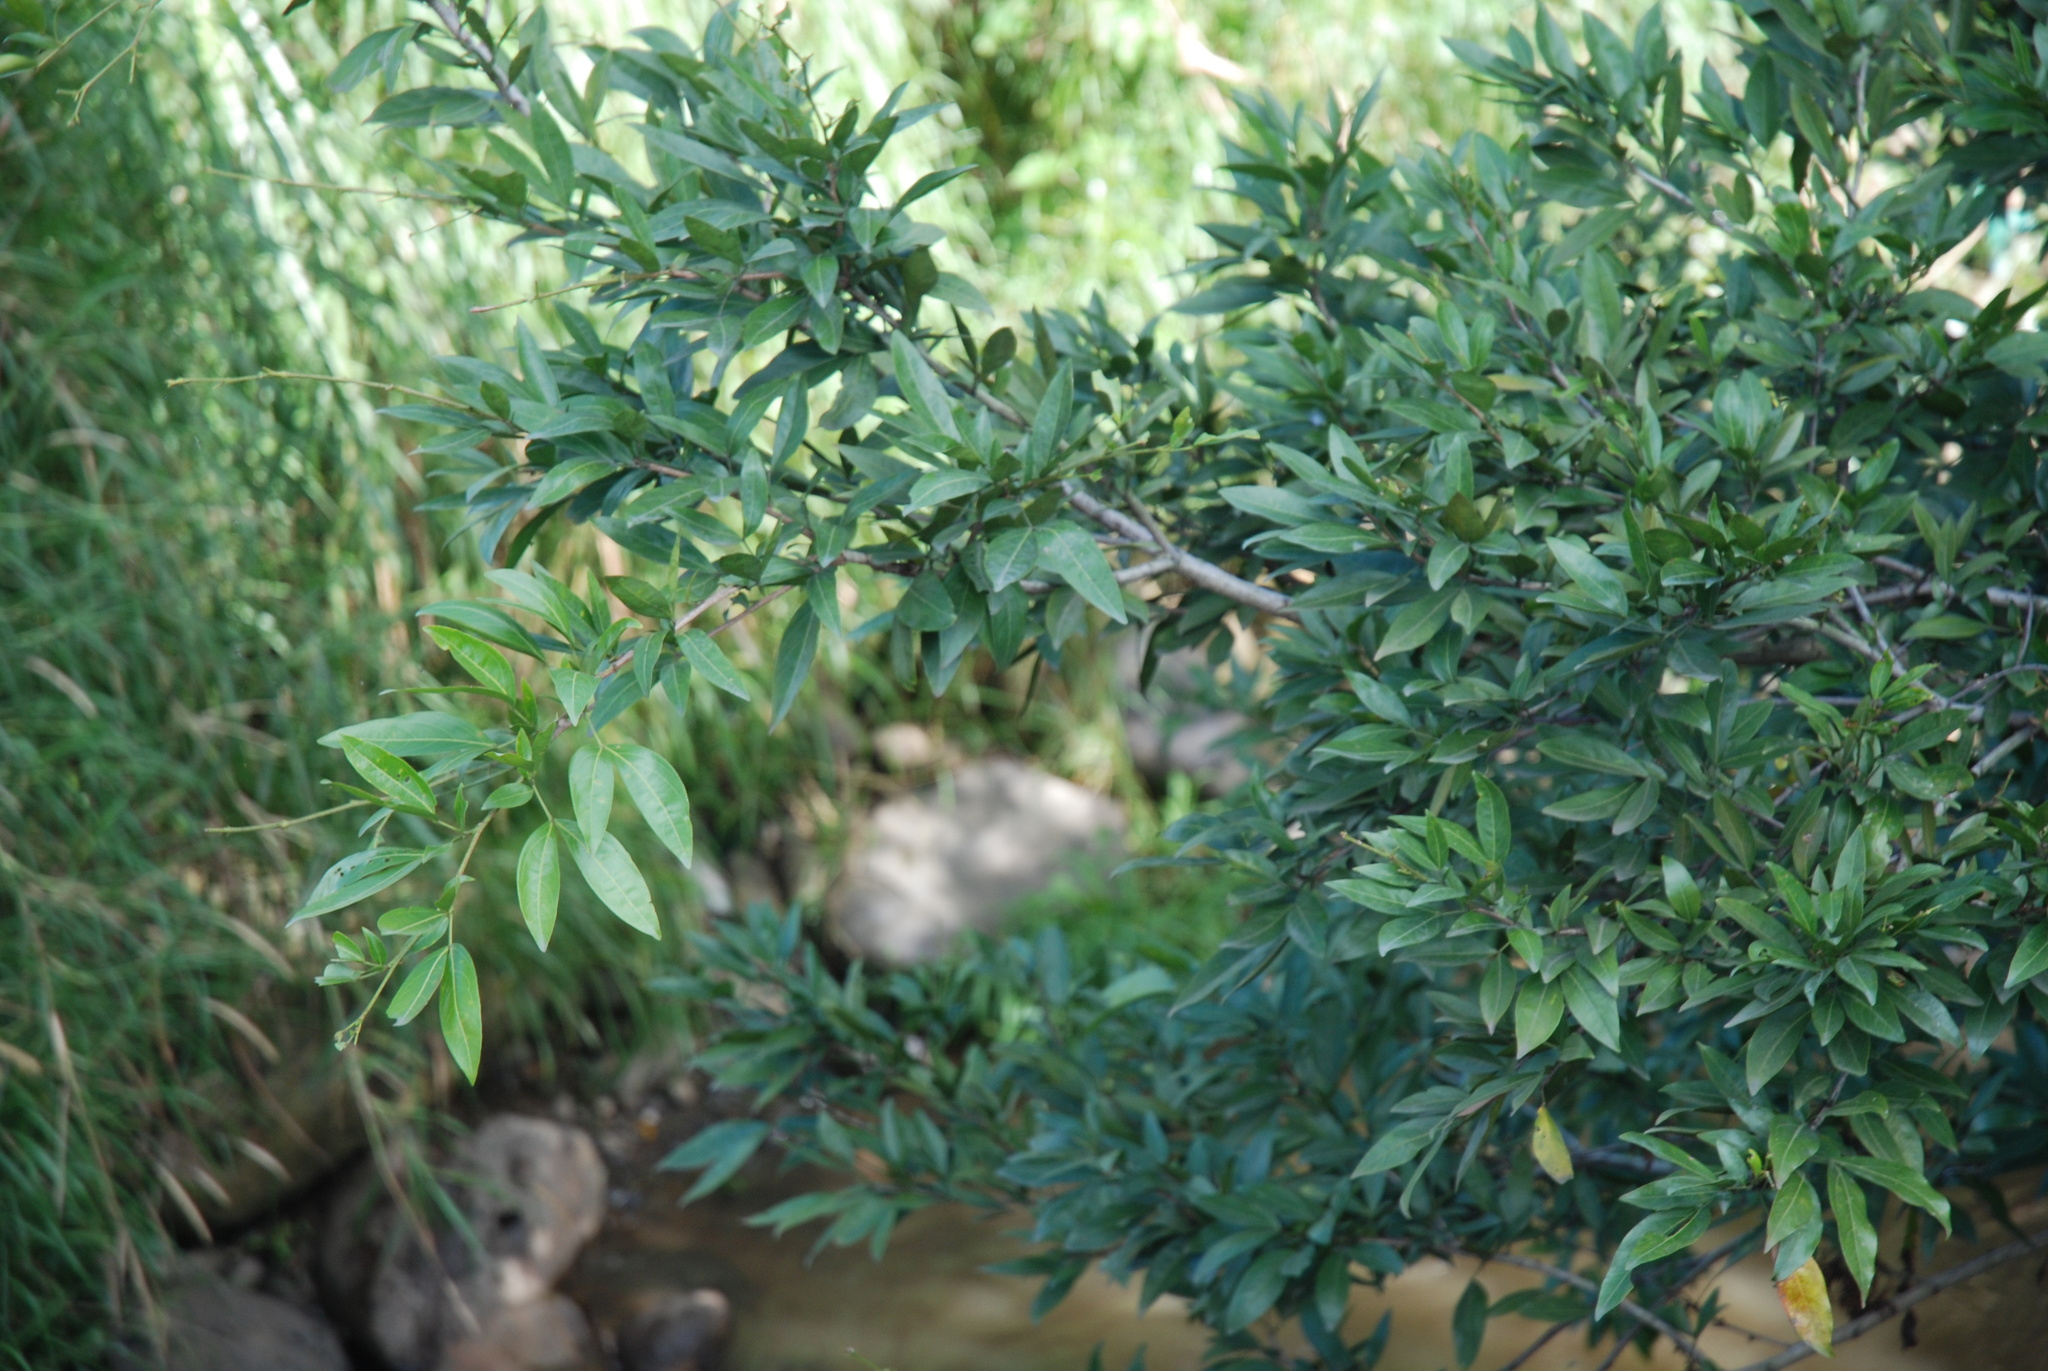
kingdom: Plantae
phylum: Tracheophyta
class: Magnoliopsida
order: Fabales
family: Fabaceae
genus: Zygia
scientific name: Zygia longifolia
